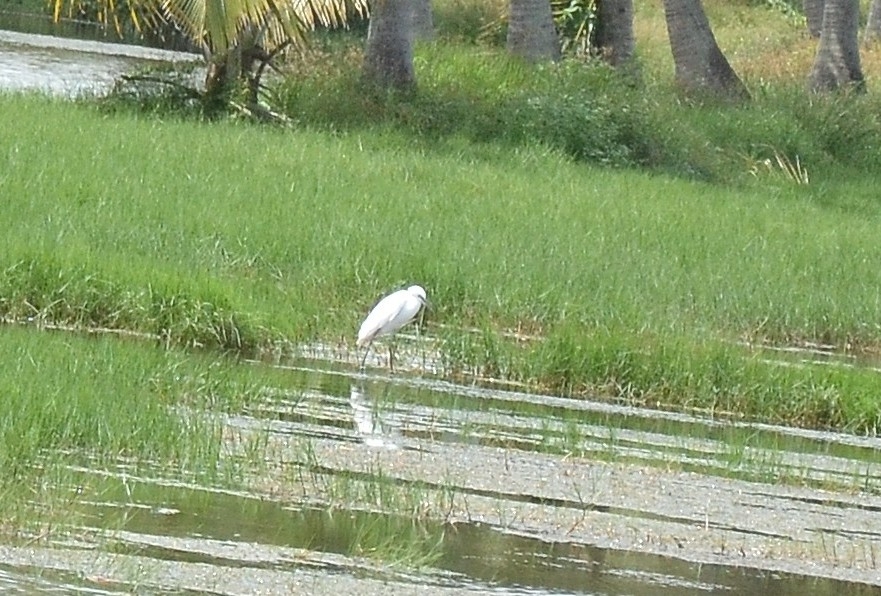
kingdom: Animalia
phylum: Chordata
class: Aves
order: Pelecaniformes
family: Ardeidae
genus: Egretta
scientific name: Egretta garzetta
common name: Little egret
